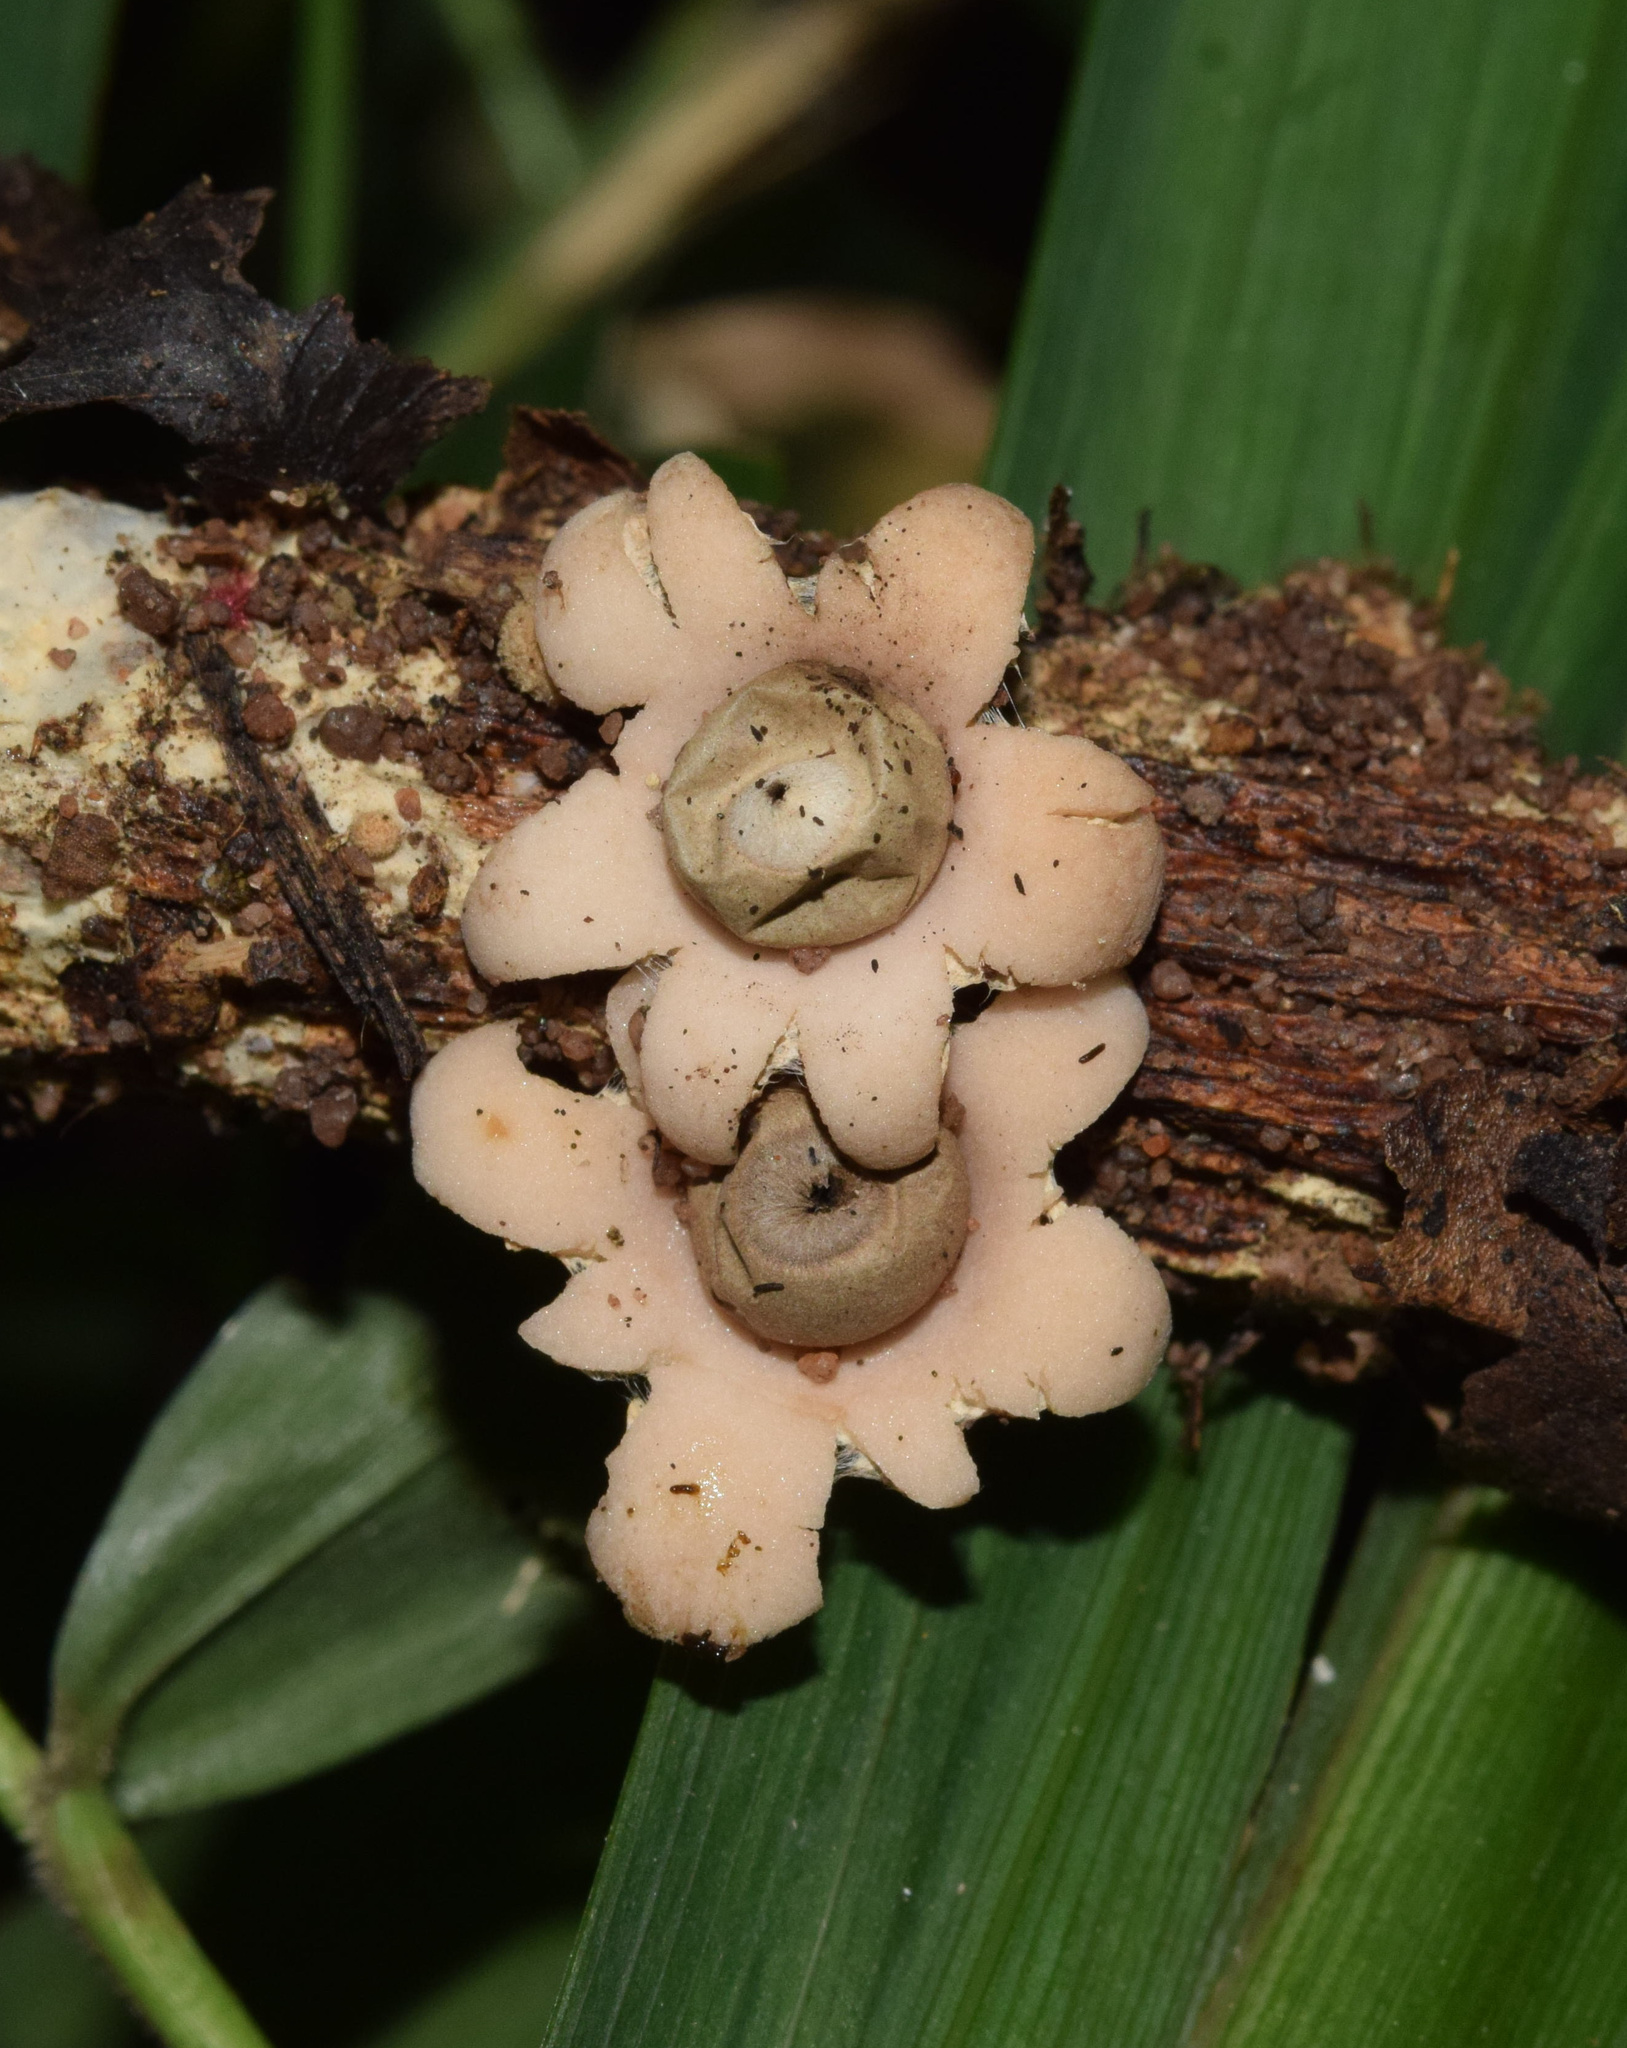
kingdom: Fungi
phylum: Basidiomycota
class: Agaricomycetes
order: Geastrales
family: Geastraceae
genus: Geastrum
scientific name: Geastrum saccatum
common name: Rounded earthstar
